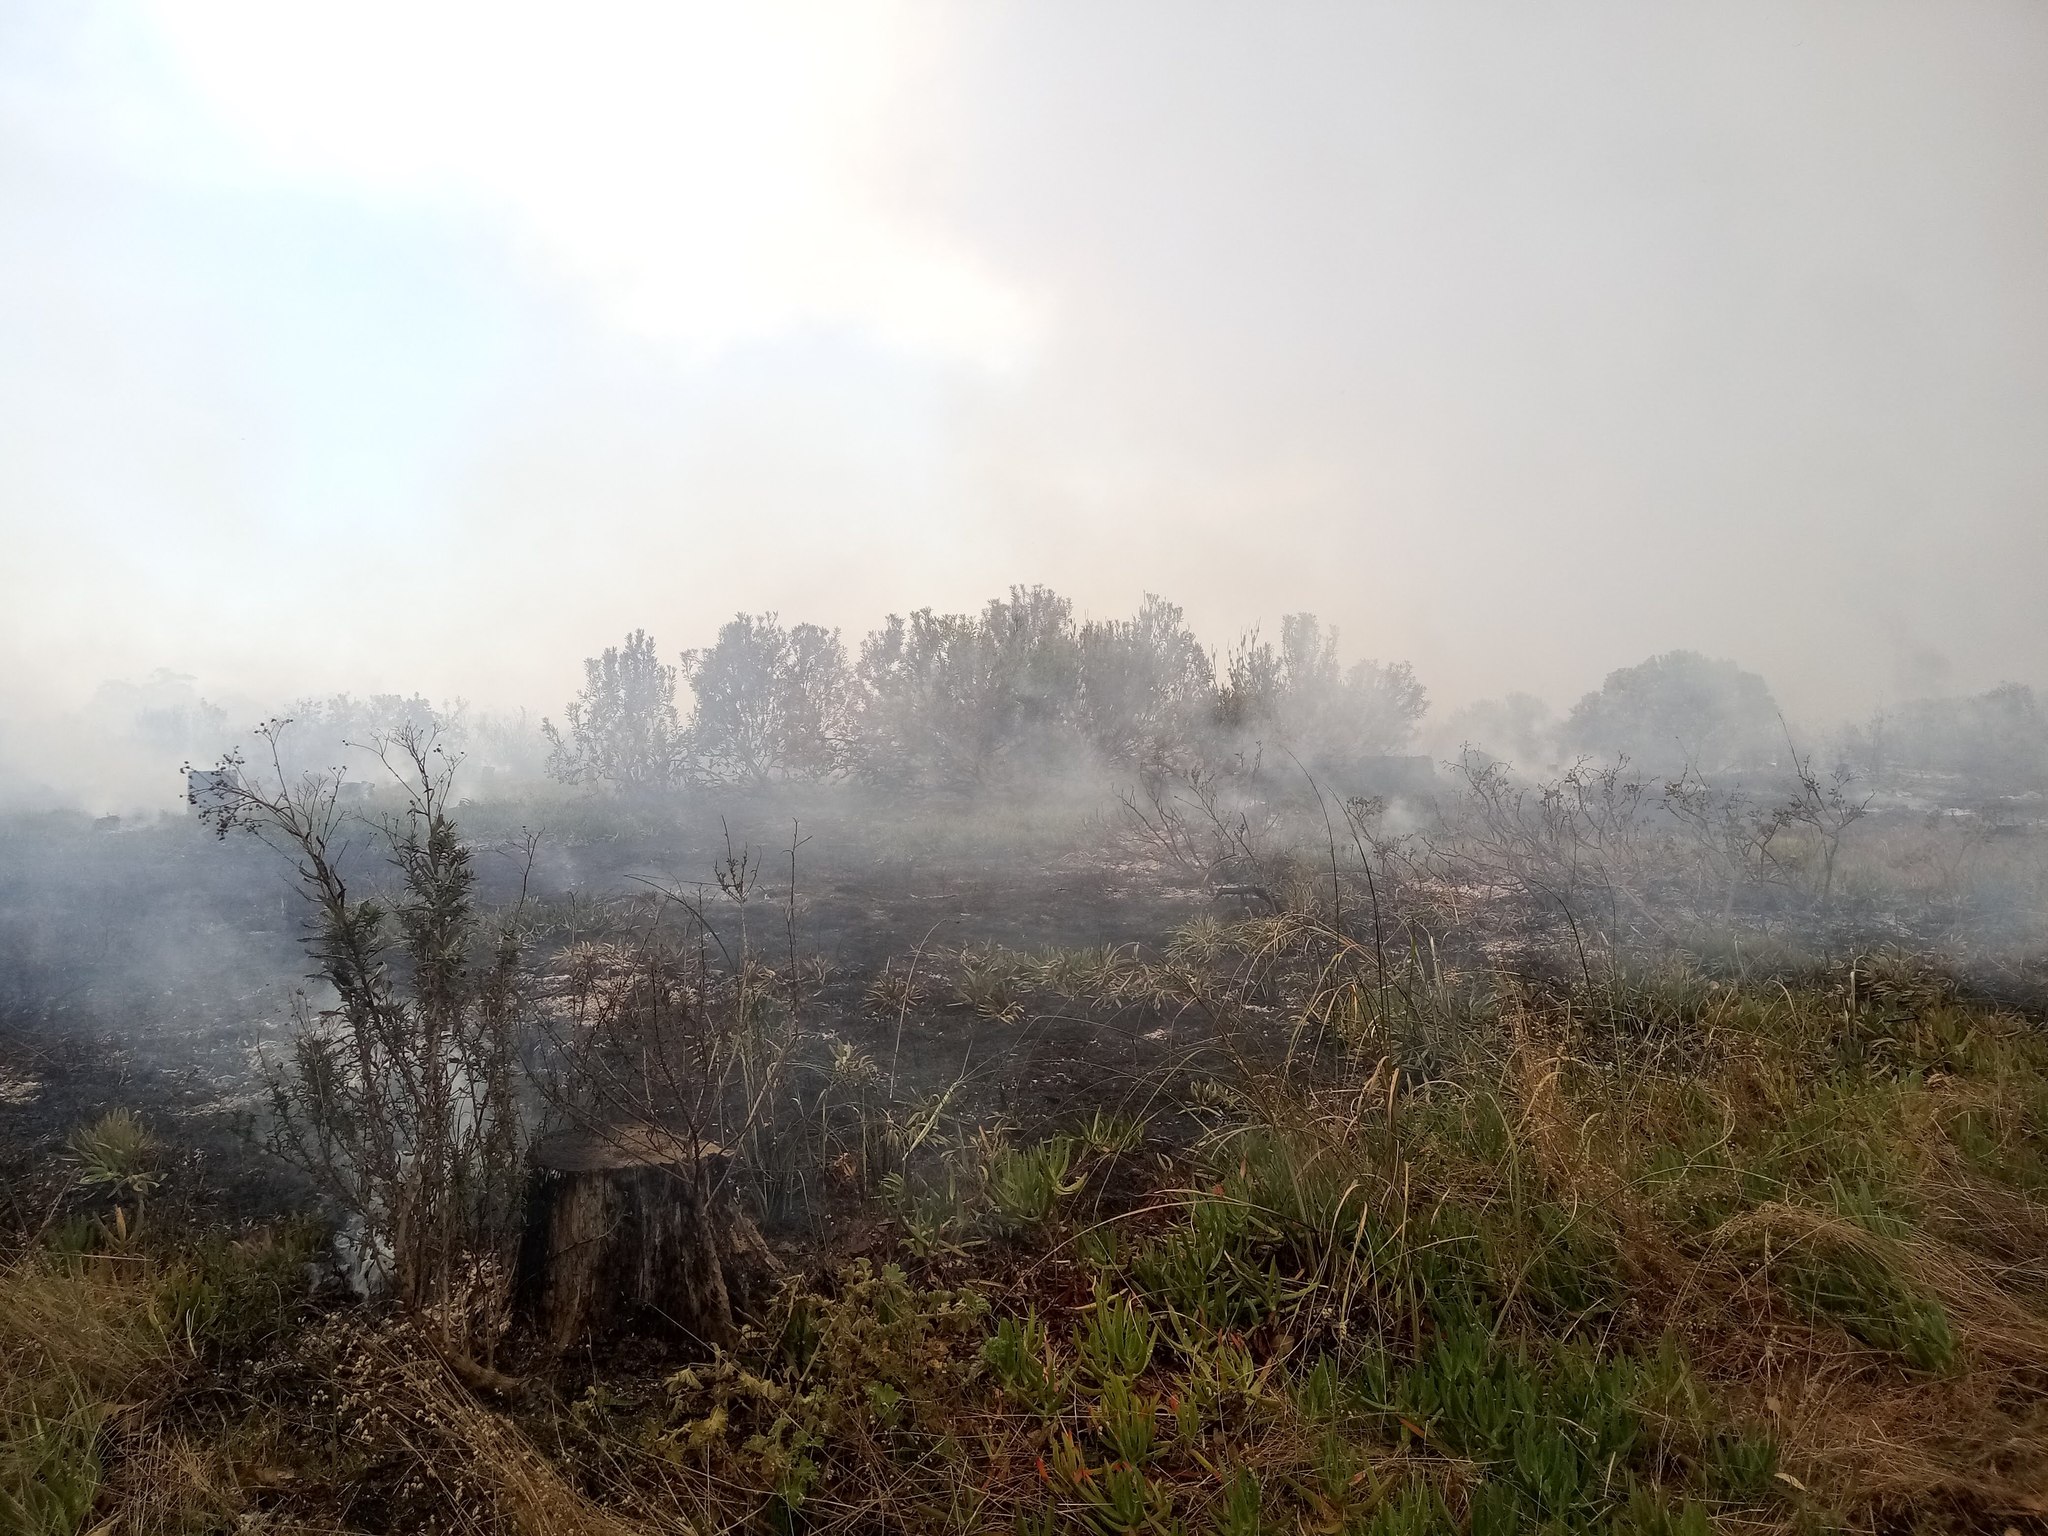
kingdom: Plantae
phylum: Tracheophyta
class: Magnoliopsida
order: Proteales
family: Proteaceae
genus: Protea
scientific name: Protea repens
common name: Sugarbush
